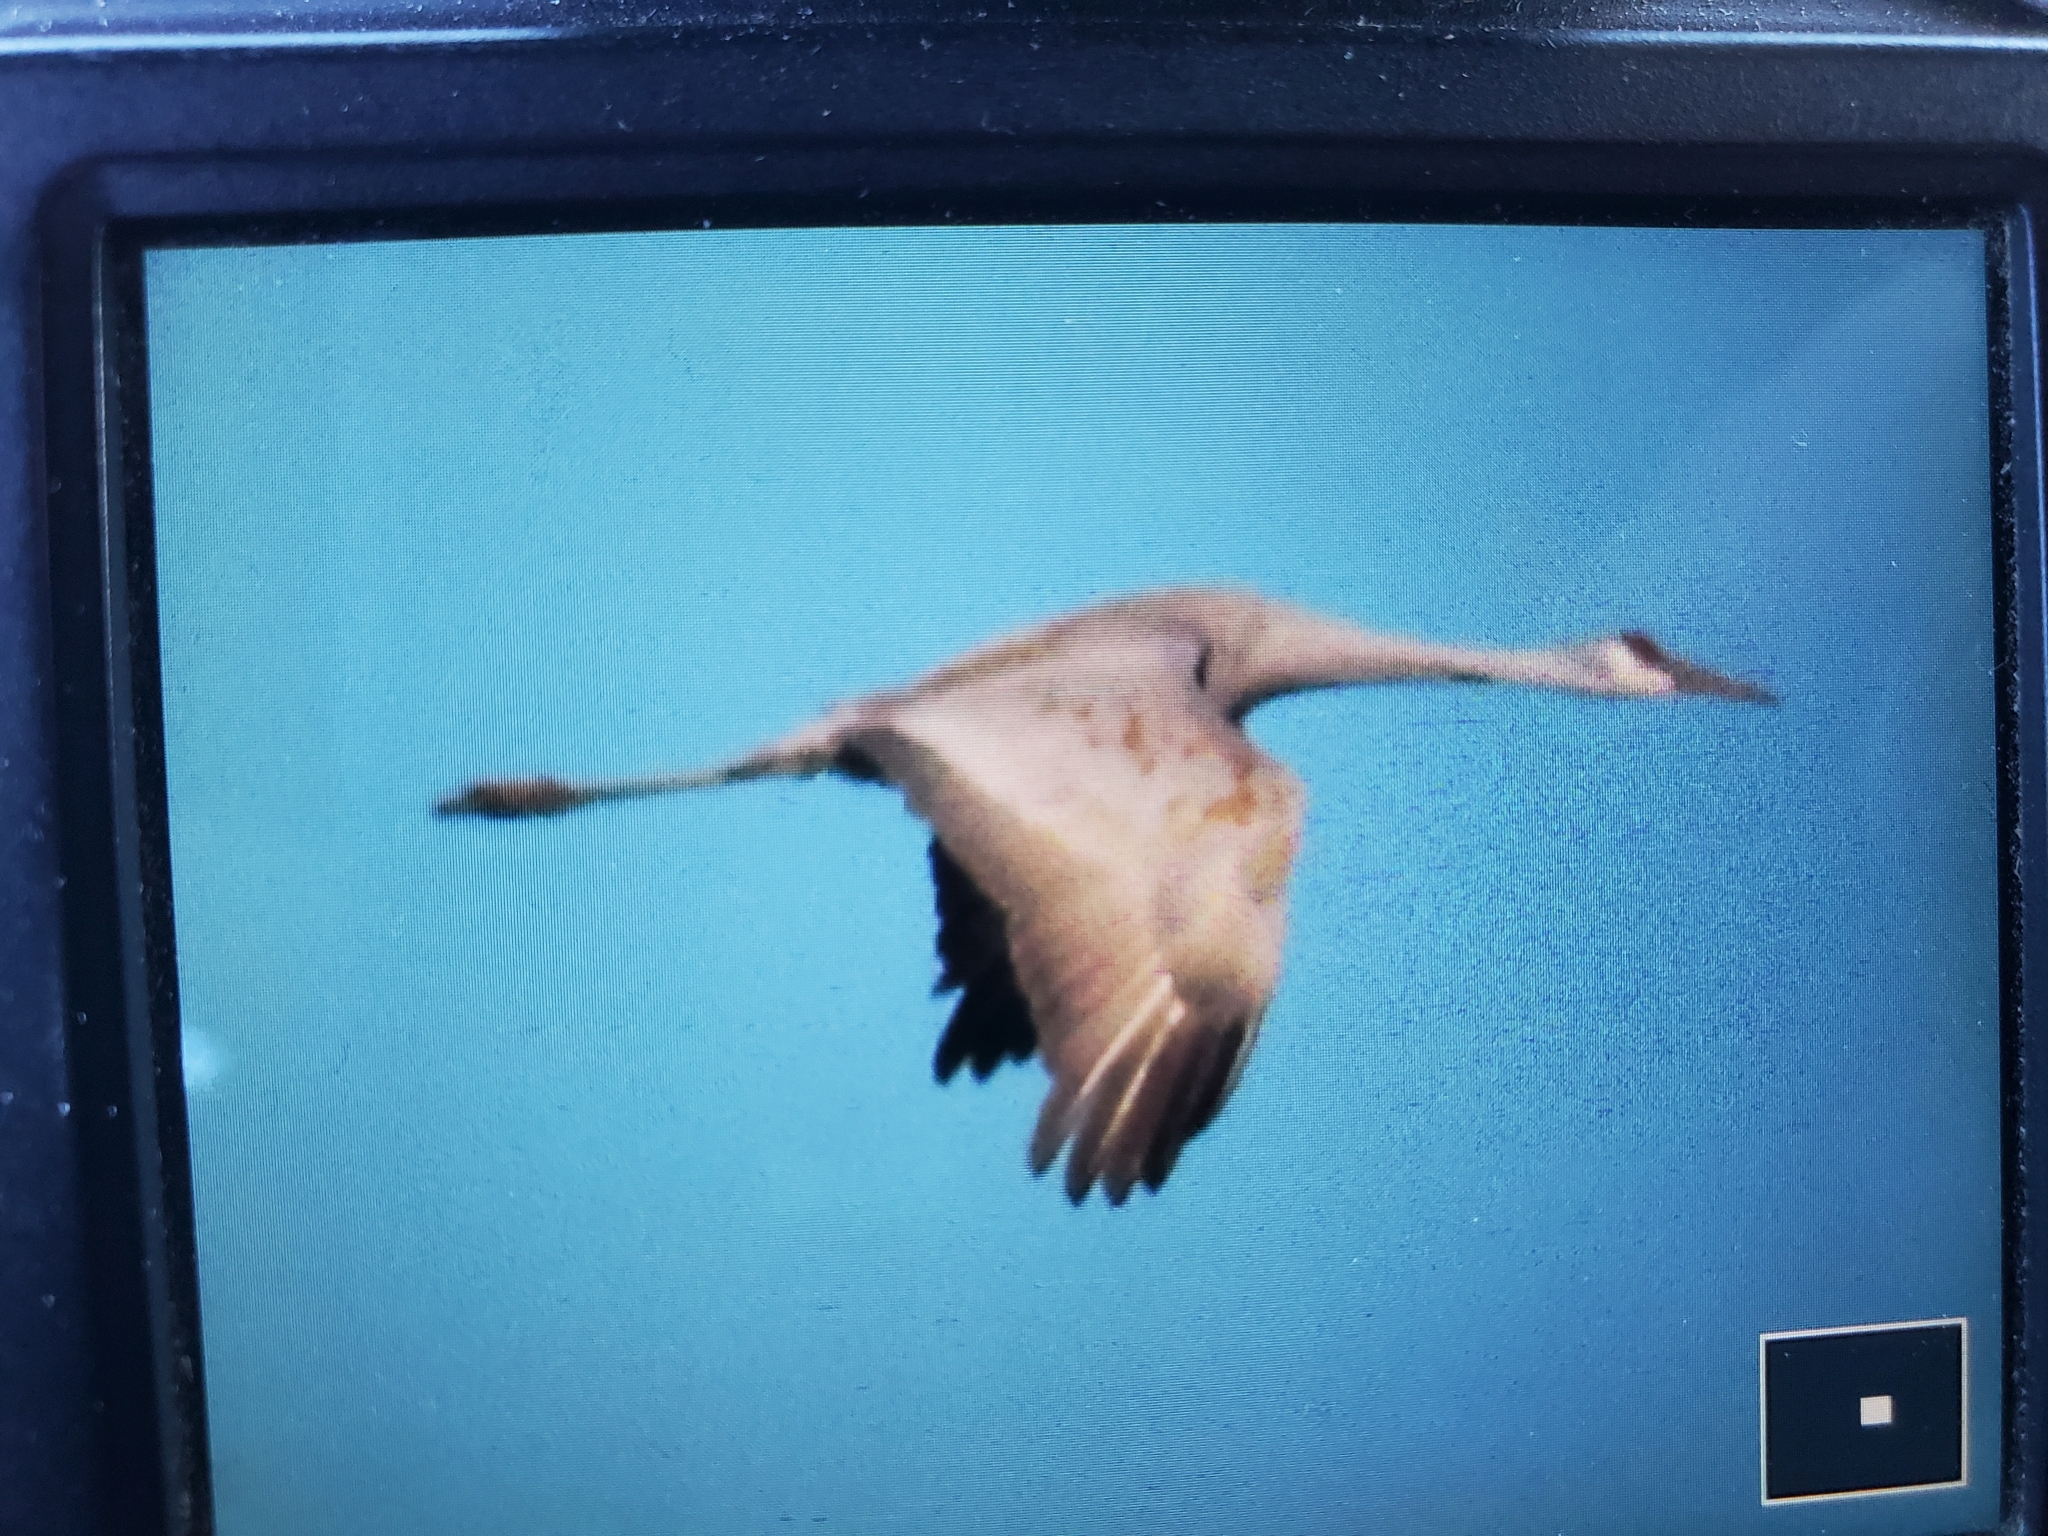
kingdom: Animalia
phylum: Chordata
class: Aves
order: Gruiformes
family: Gruidae
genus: Grus
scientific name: Grus canadensis
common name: Sandhill crane
